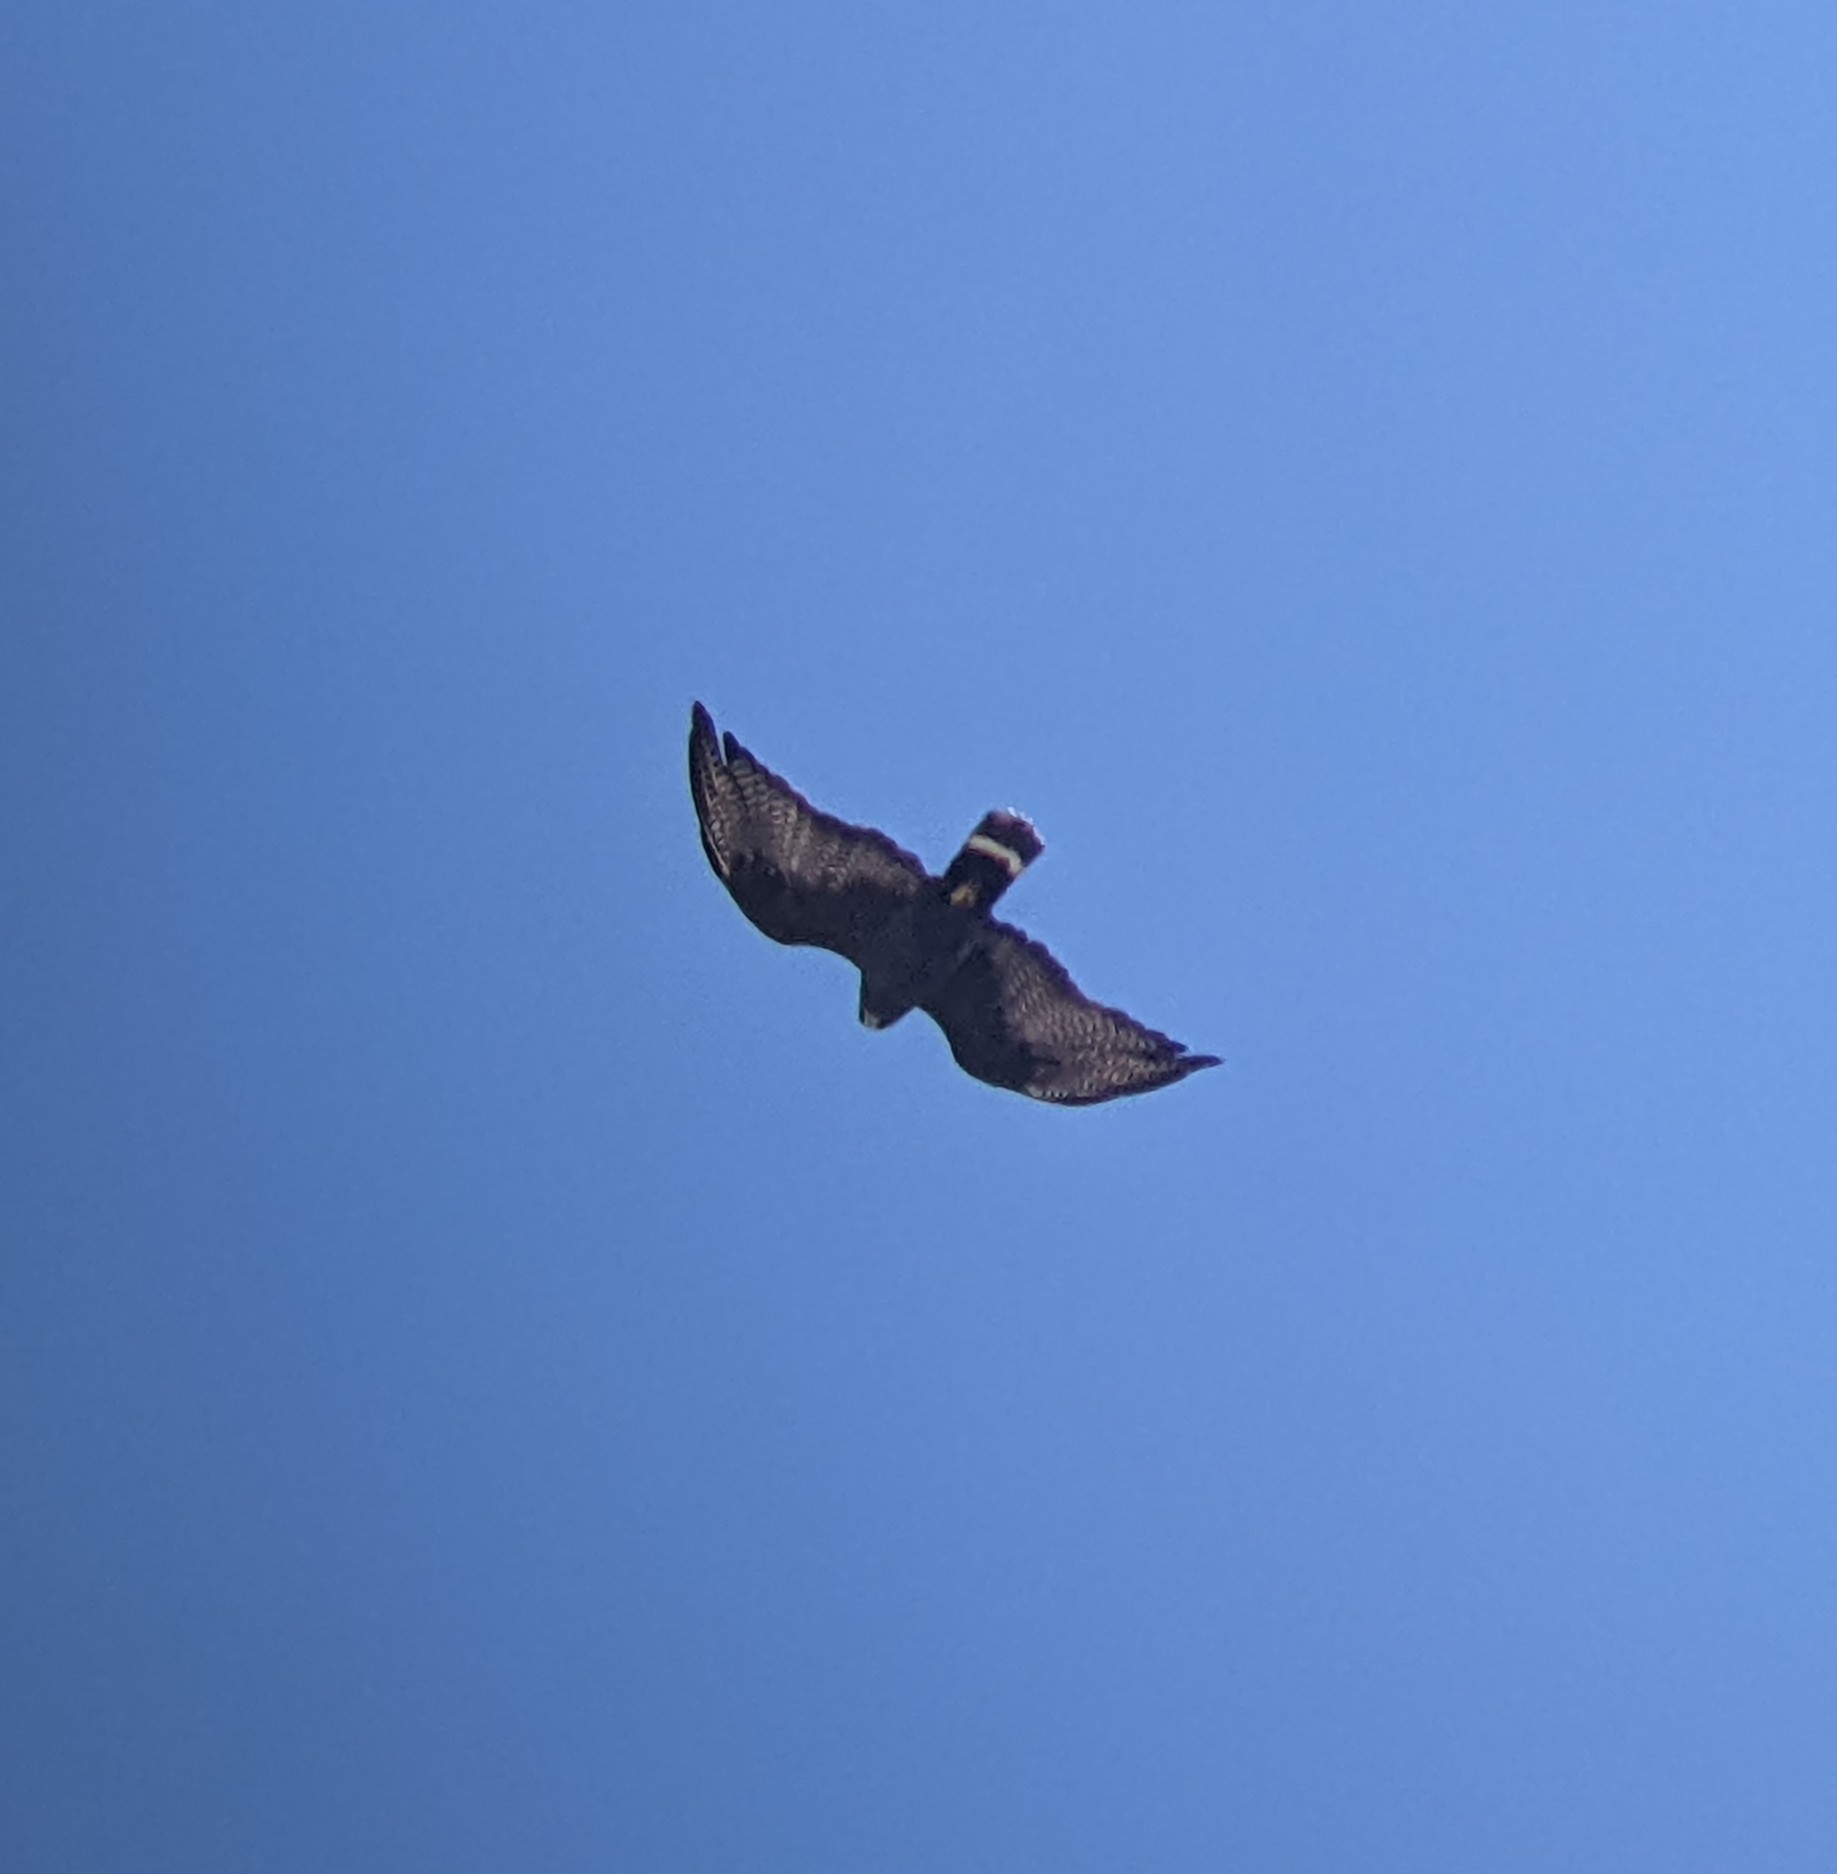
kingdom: Animalia
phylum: Chordata
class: Aves
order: Accipitriformes
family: Accipitridae
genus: Buteo
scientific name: Buteo albonotatus
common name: Zone-tailed hawk
